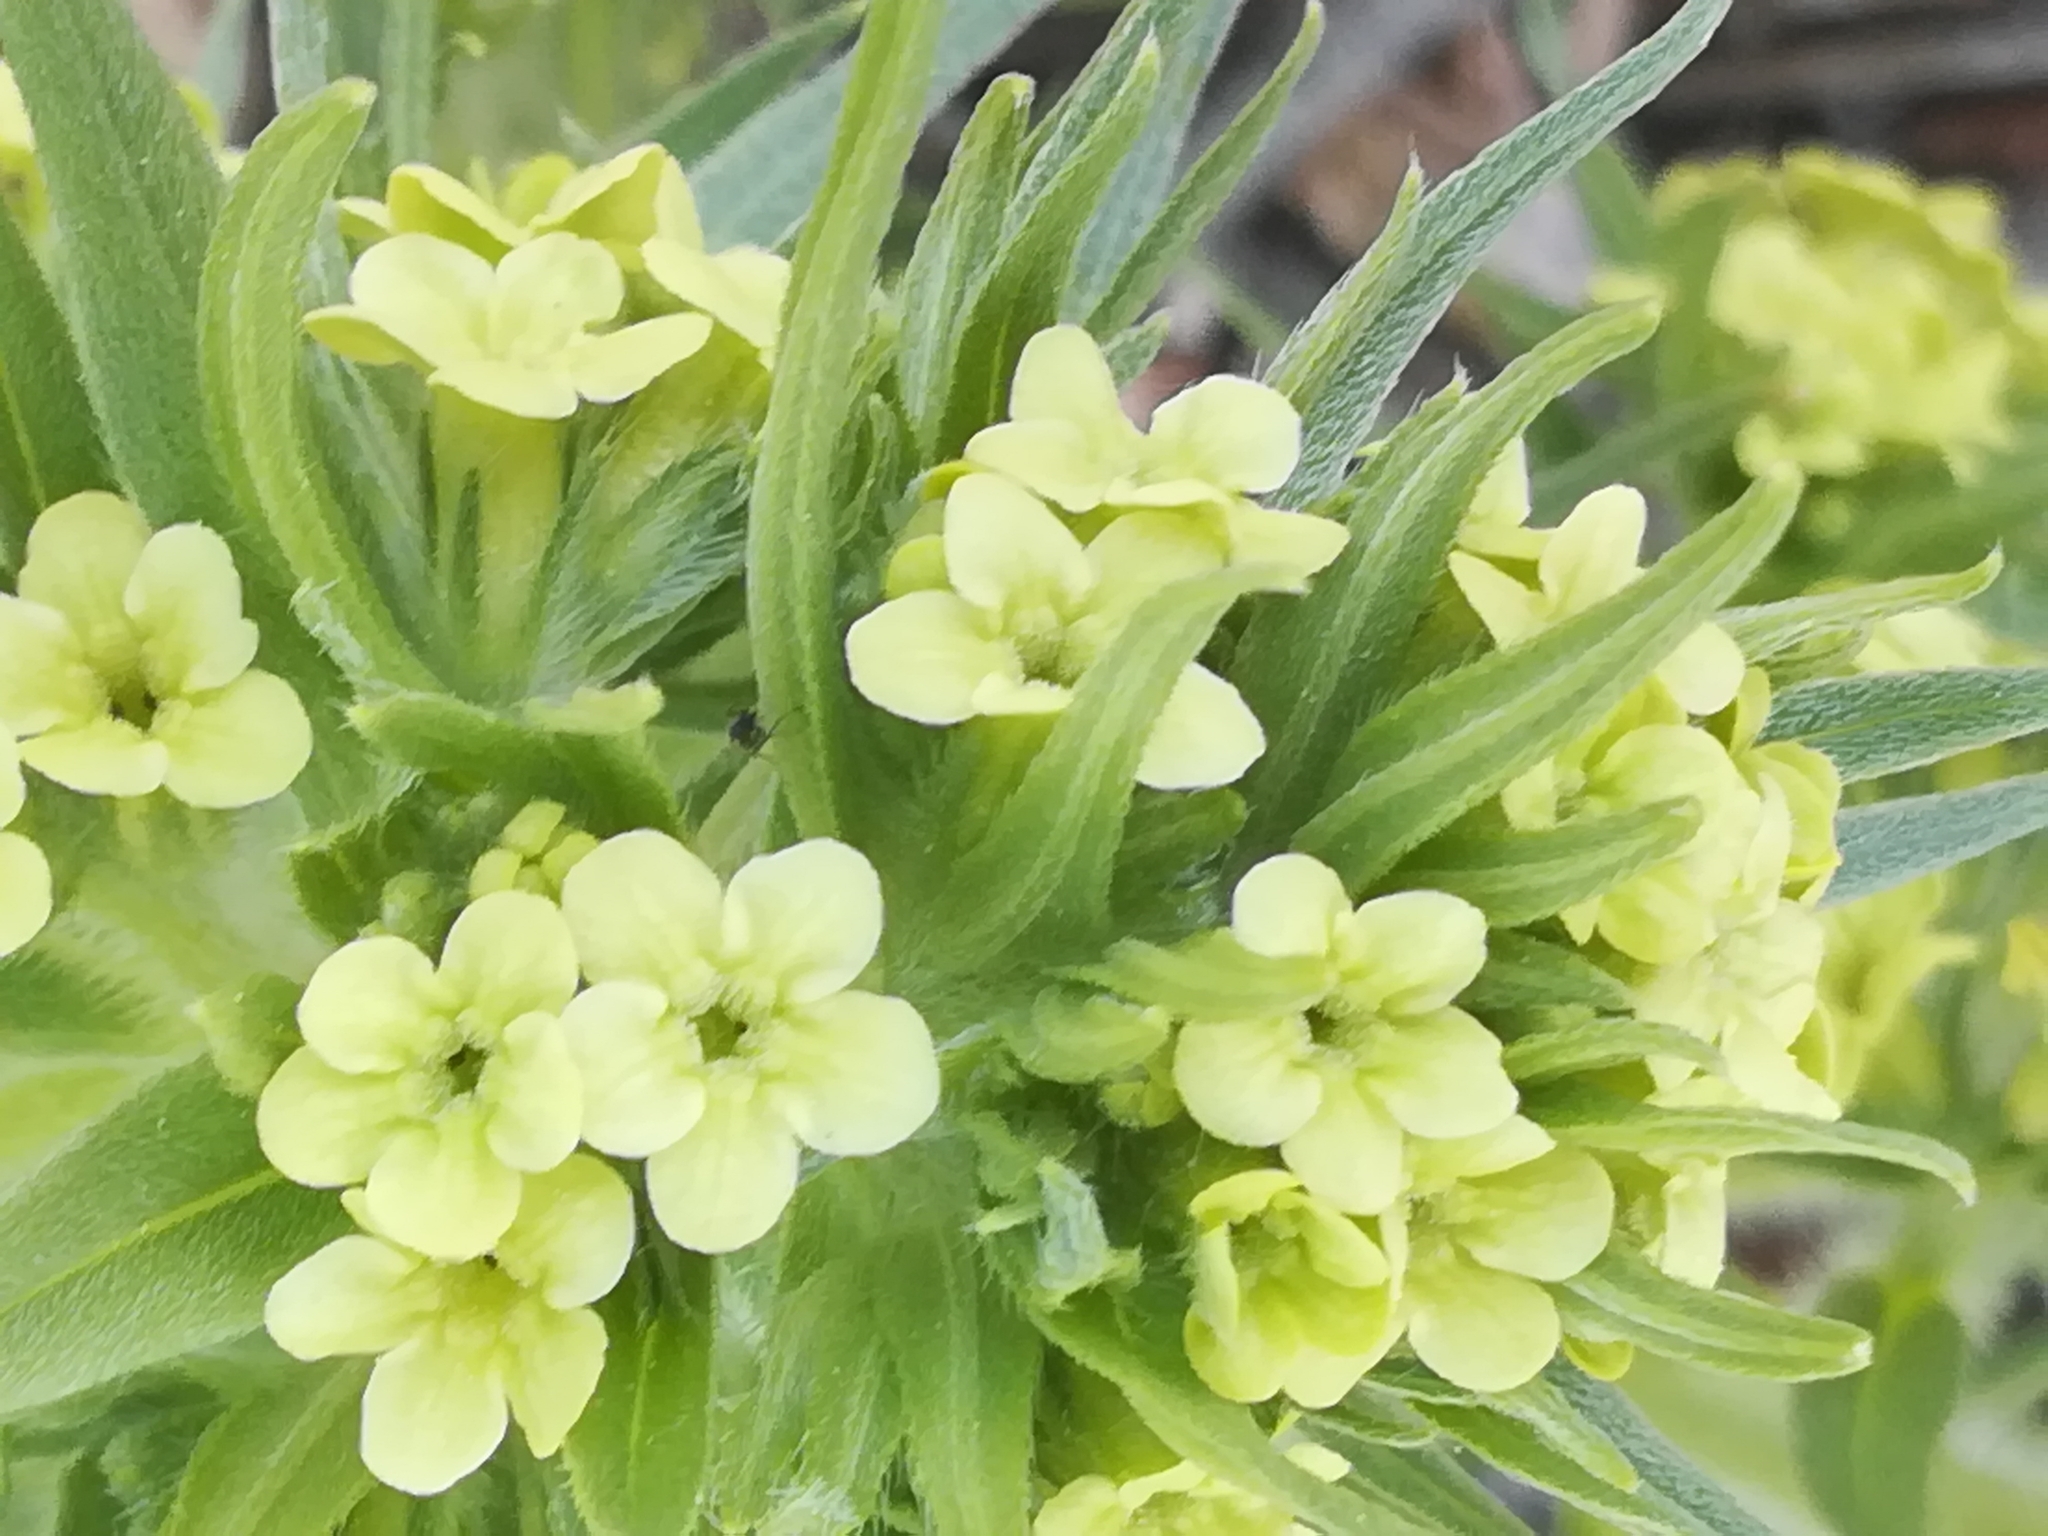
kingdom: Plantae
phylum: Tracheophyta
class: Magnoliopsida
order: Boraginales
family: Boraginaceae
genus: Lithospermum
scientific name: Lithospermum ruderale
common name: Western gromwell
